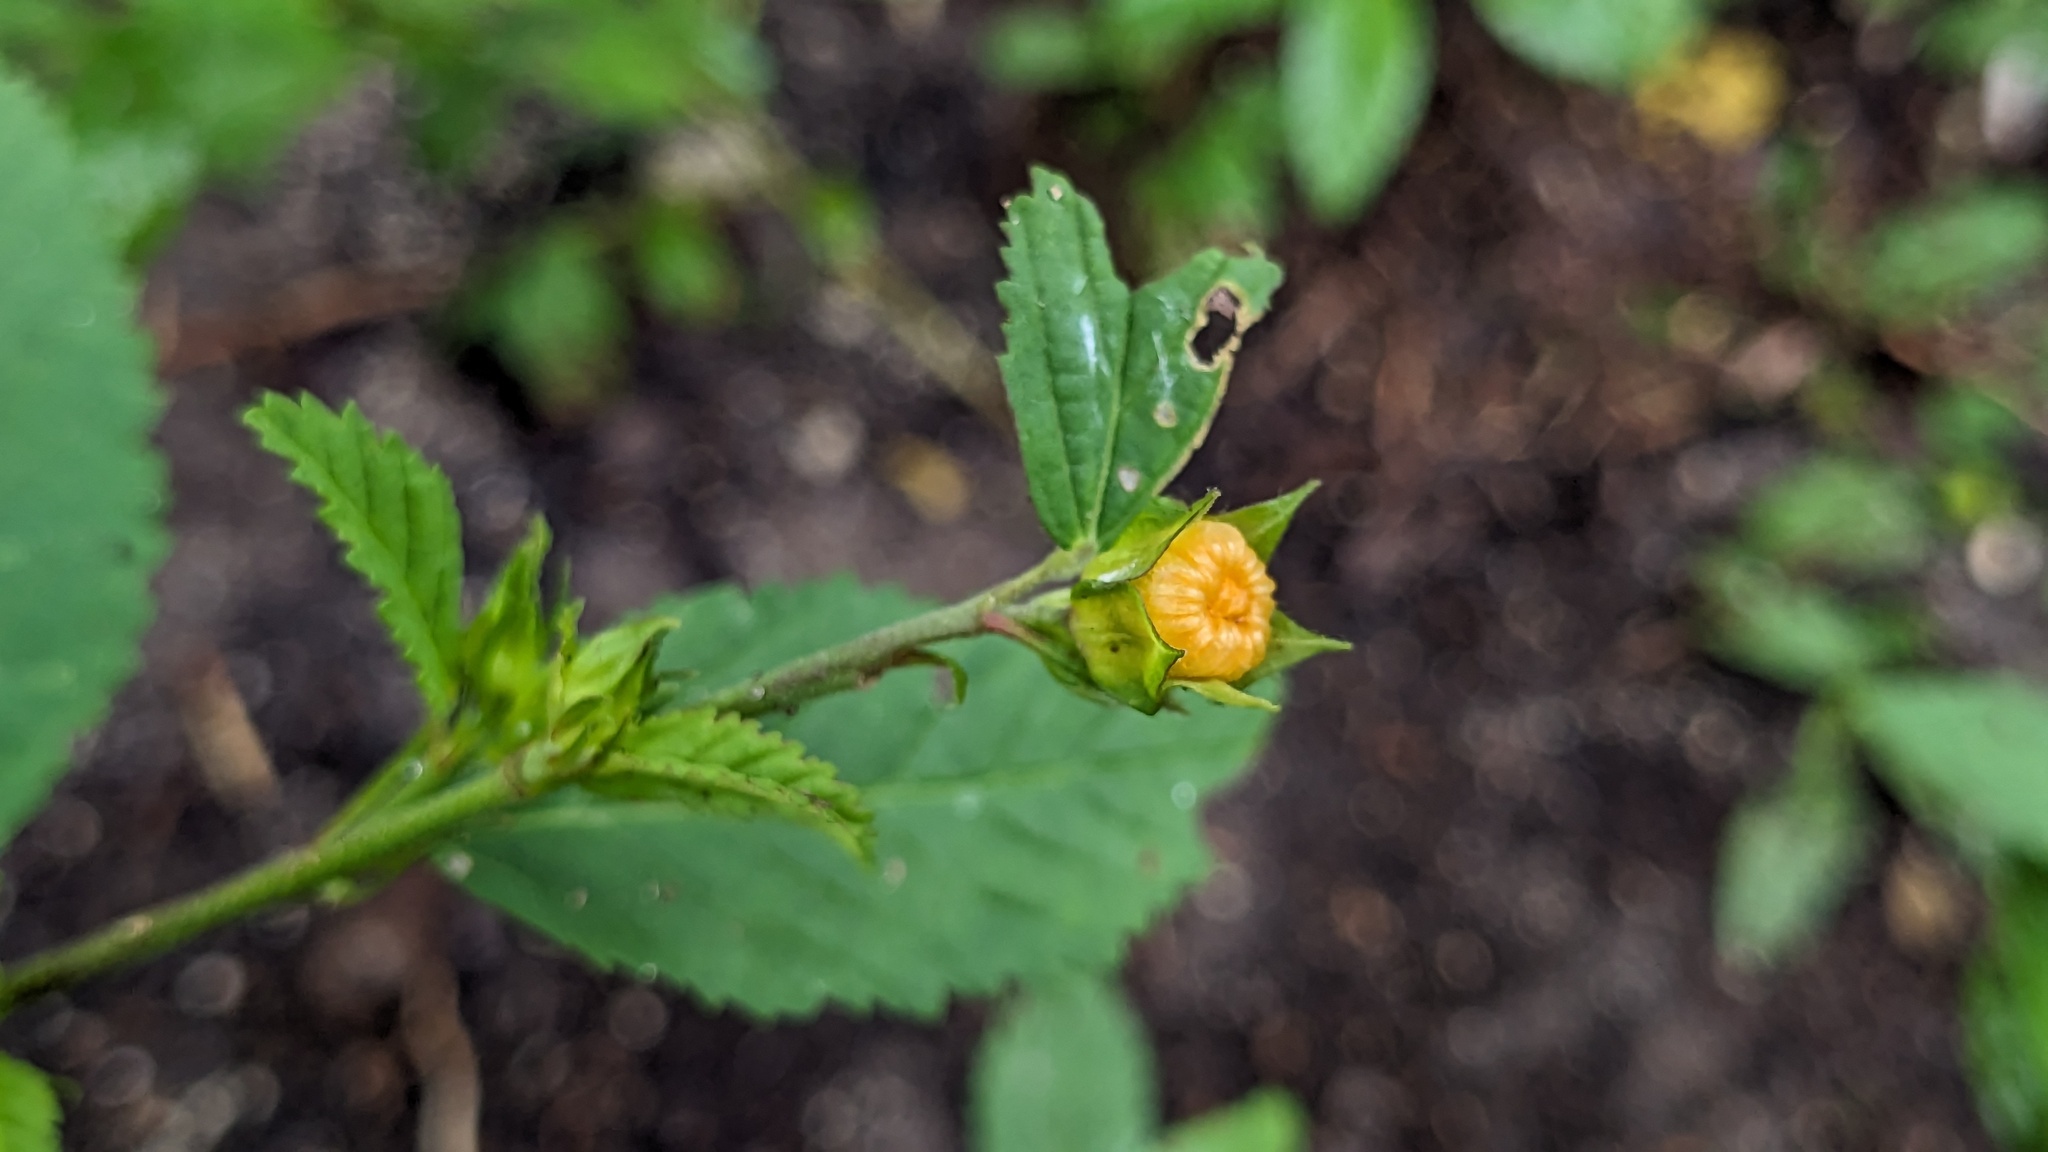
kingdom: Plantae
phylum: Tracheophyta
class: Magnoliopsida
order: Malvales
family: Malvaceae
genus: Sida
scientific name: Sida ulmifolia
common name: Broom weed
